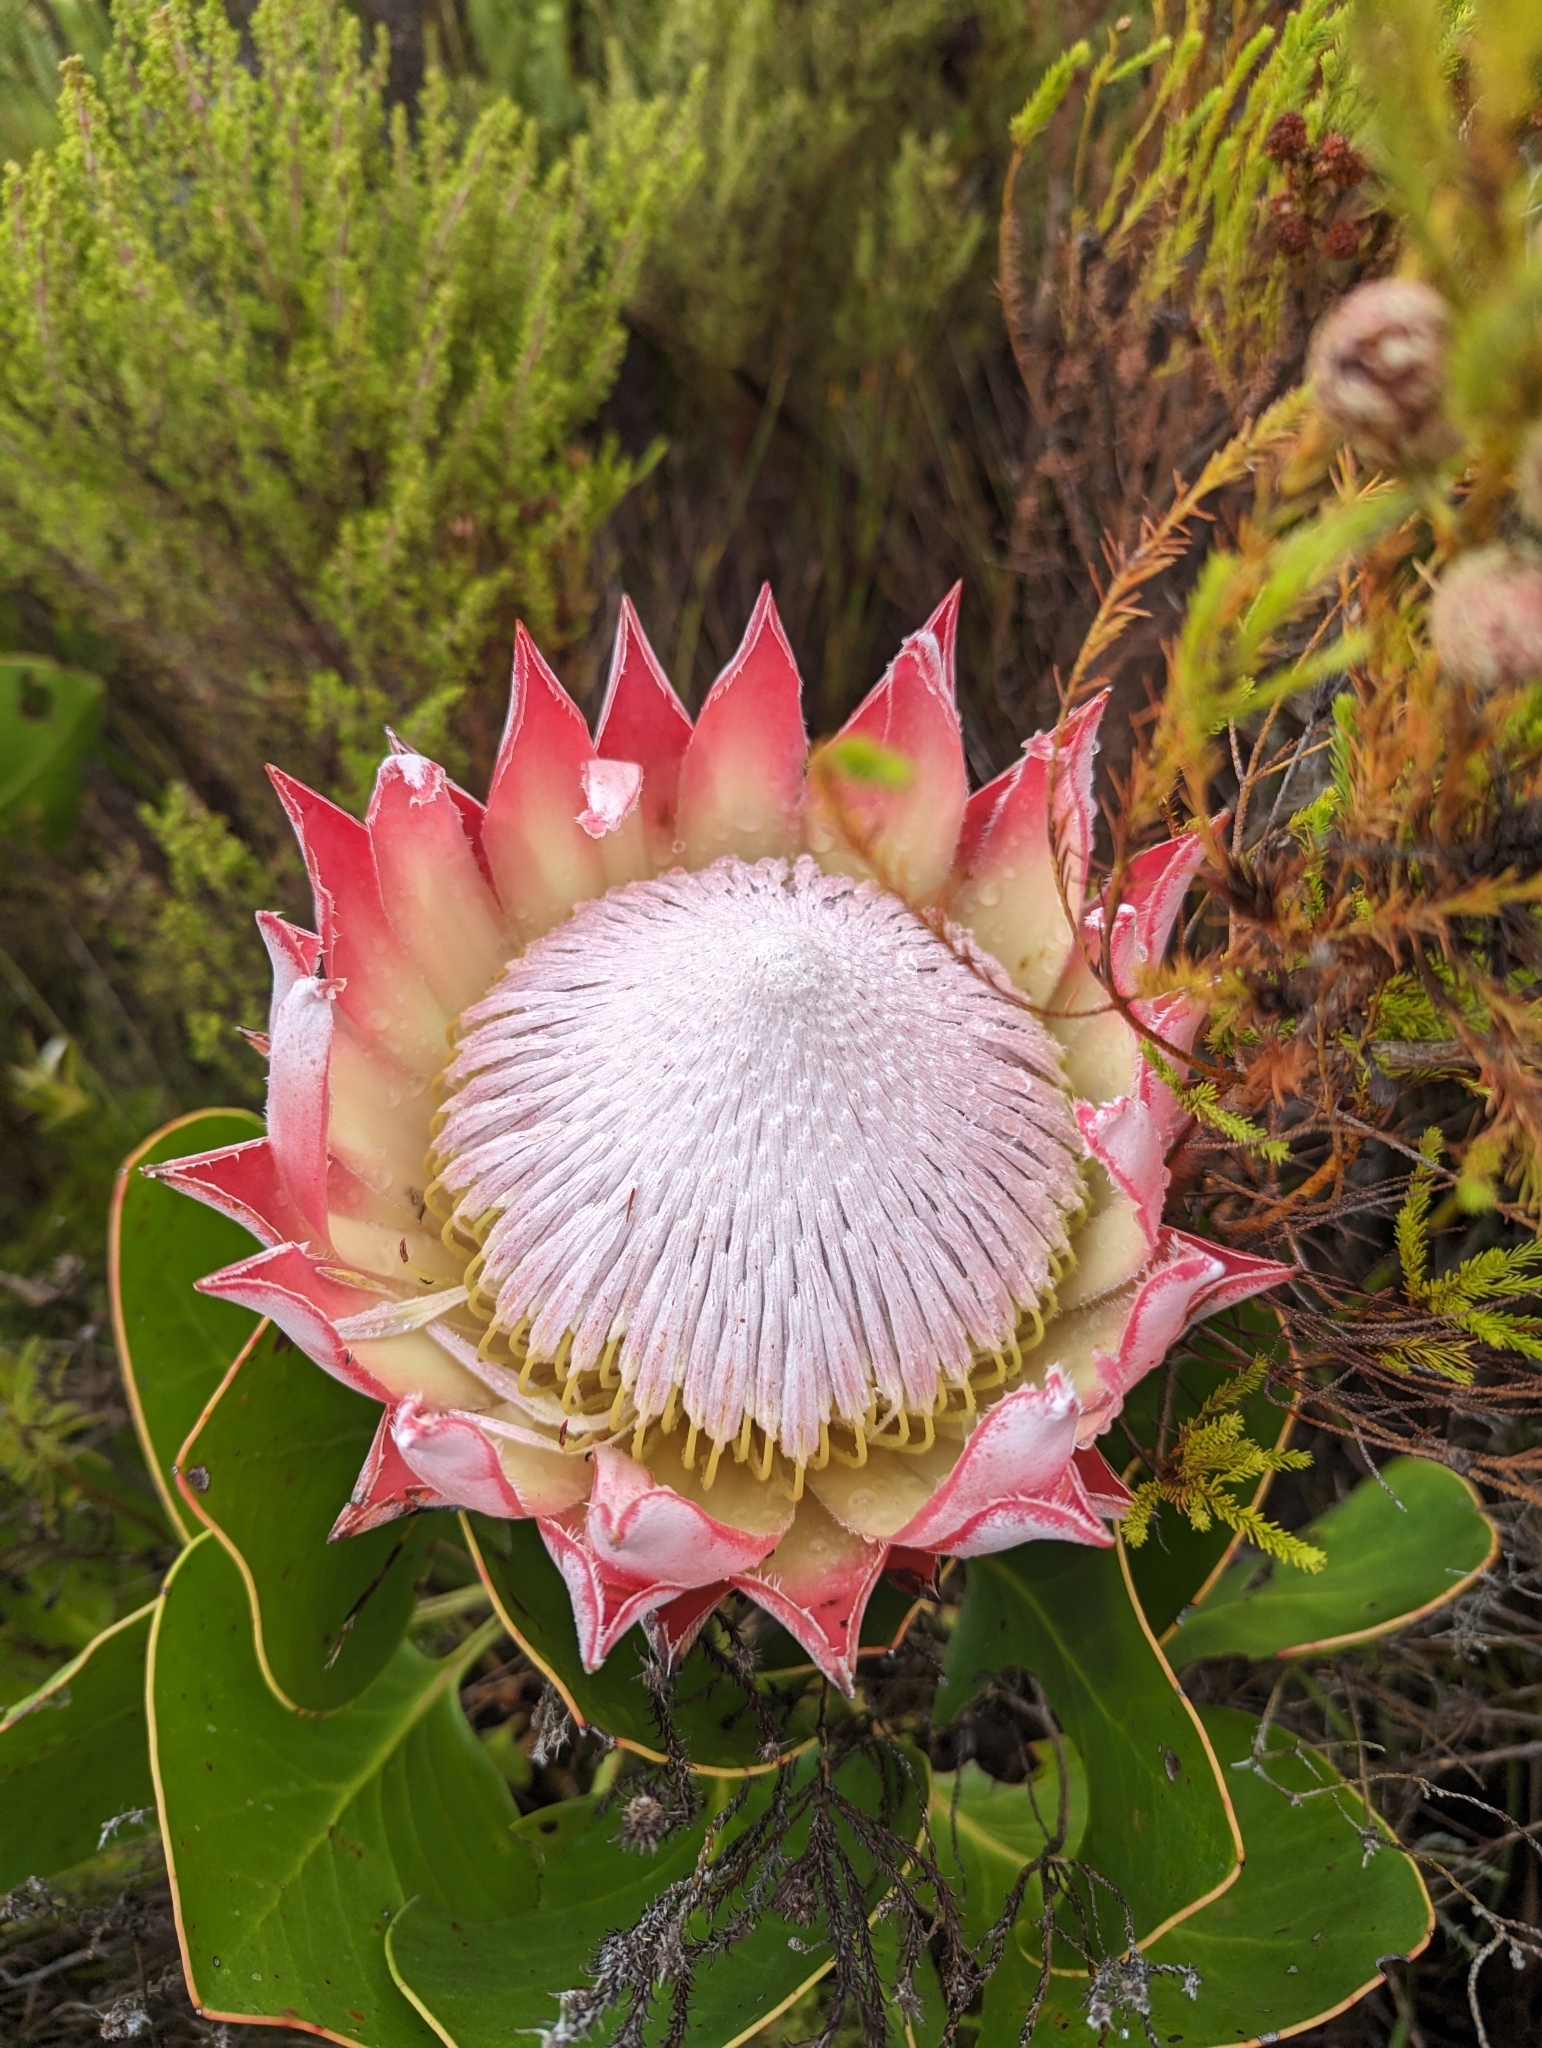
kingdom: Plantae
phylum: Tracheophyta
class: Magnoliopsida
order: Proteales
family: Proteaceae
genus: Protea
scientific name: Protea cynaroides
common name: King protea
